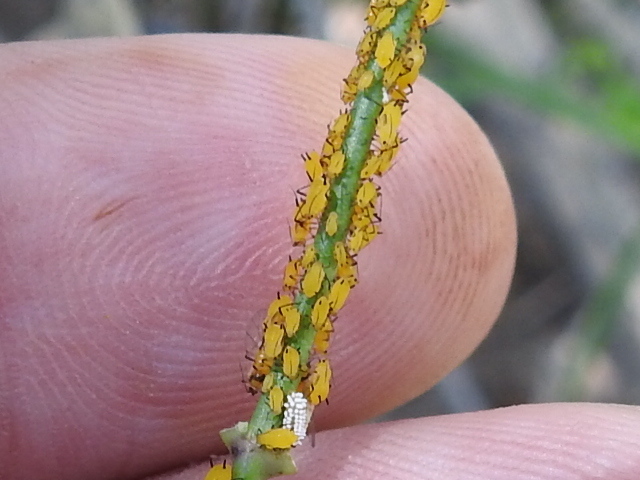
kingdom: Animalia
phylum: Arthropoda
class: Insecta
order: Hemiptera
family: Aphididae
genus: Aphis
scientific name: Aphis nerii
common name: Oleander aphid
